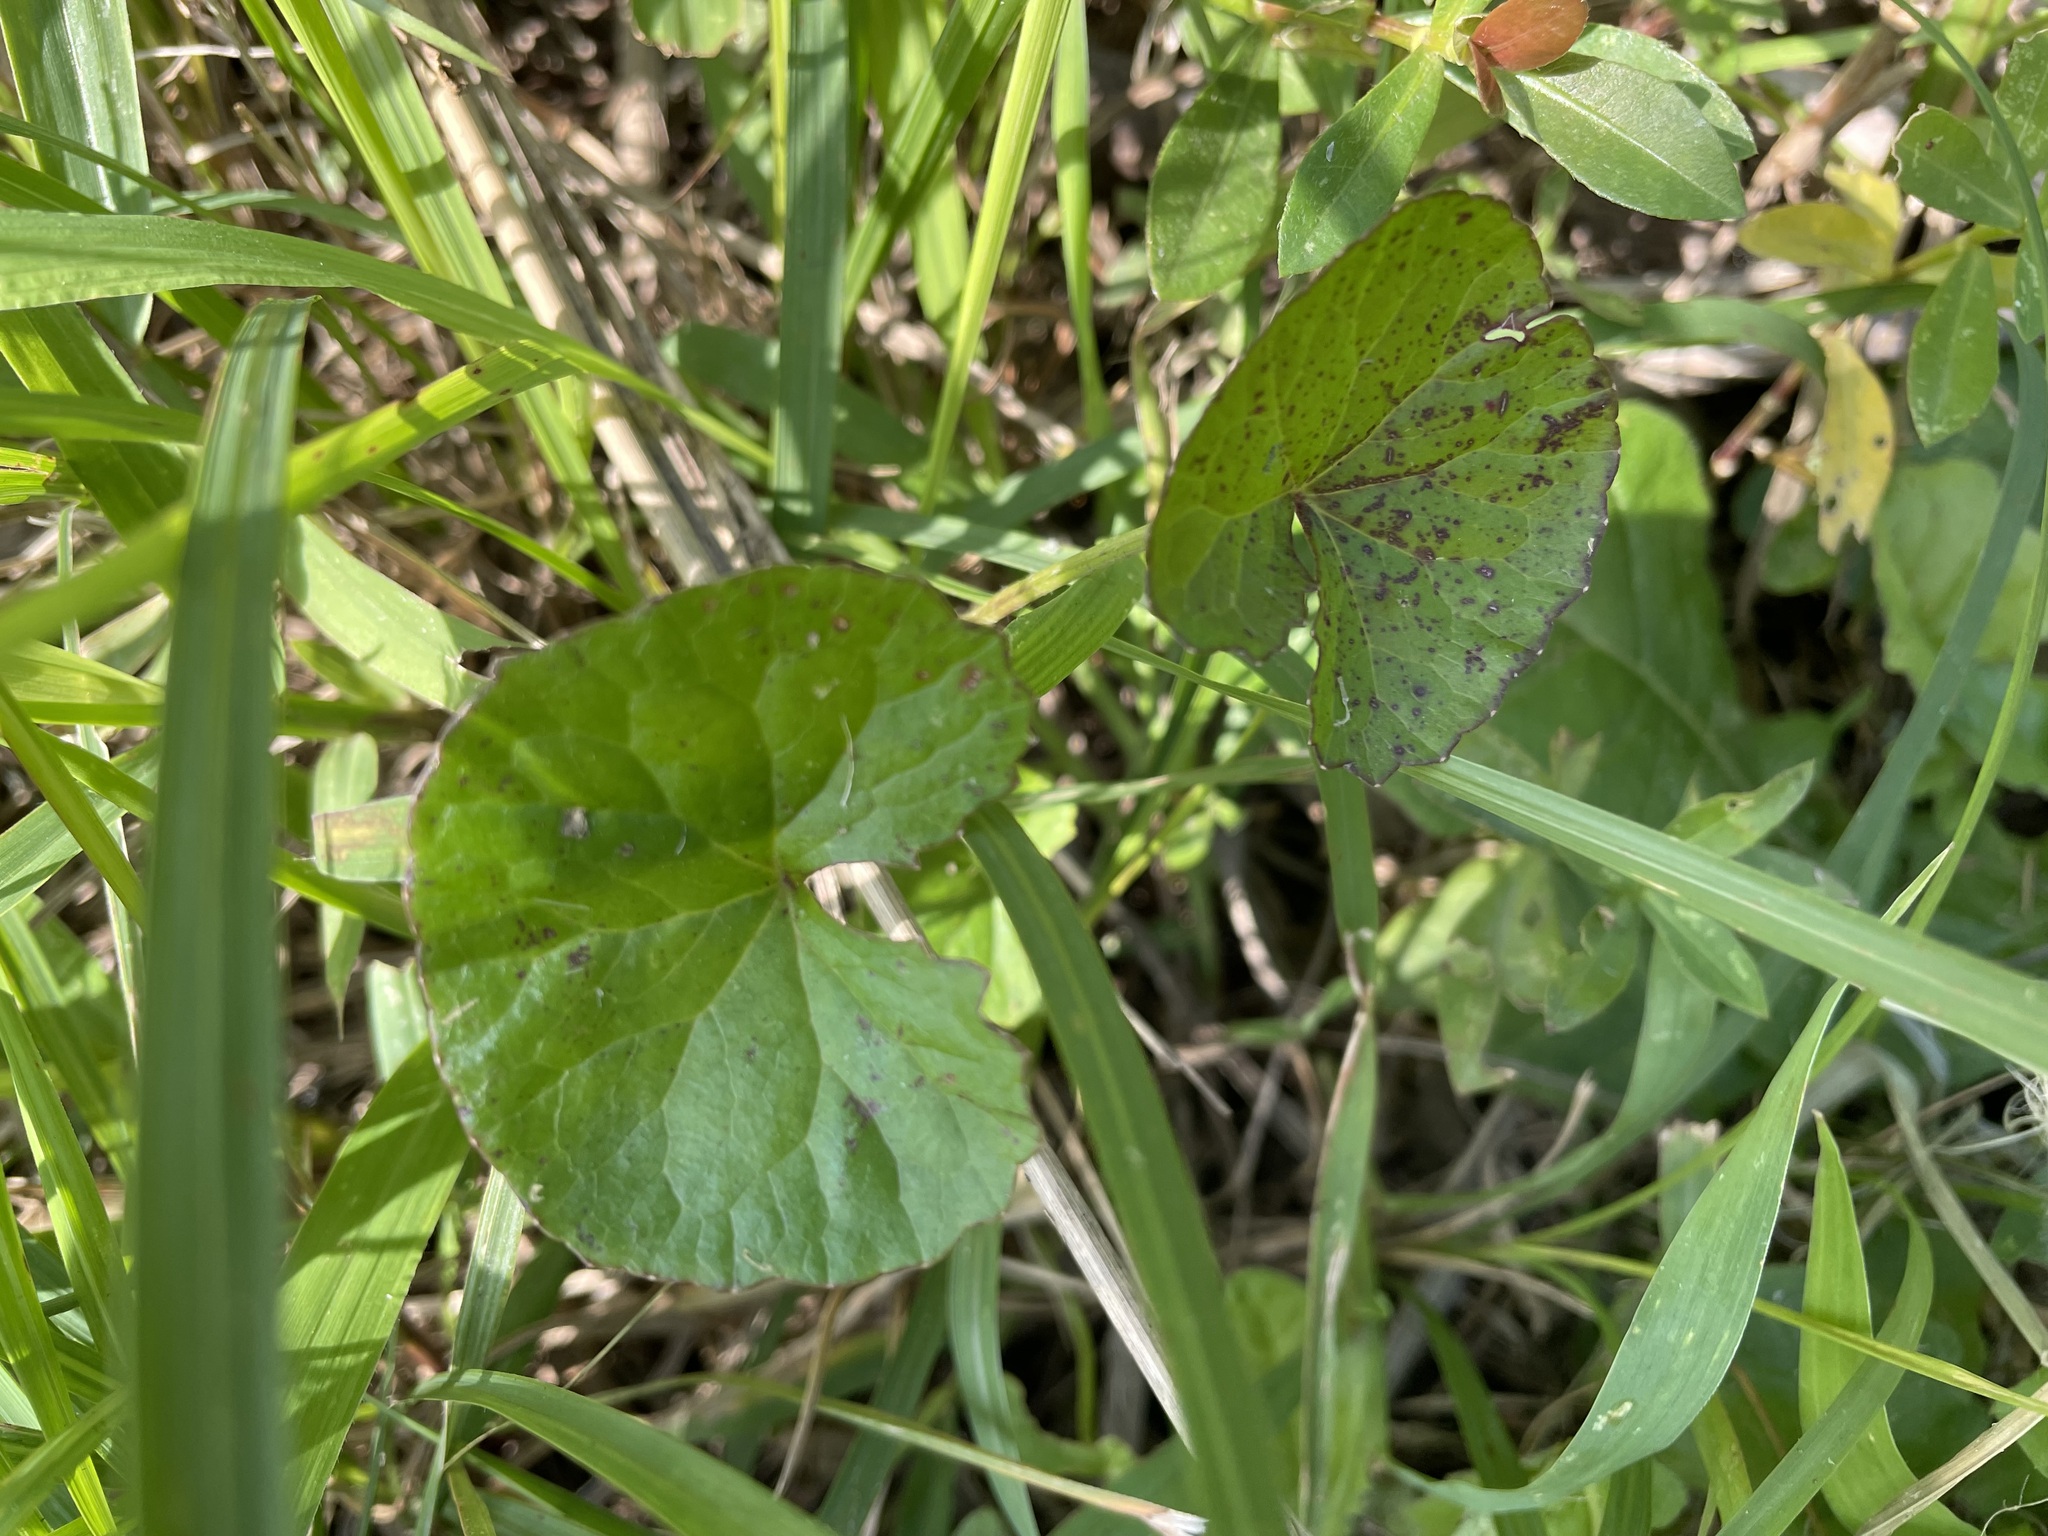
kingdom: Plantae
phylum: Tracheophyta
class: Magnoliopsida
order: Apiales
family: Apiaceae
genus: Centella
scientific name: Centella asiatica
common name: Spadeleaf
